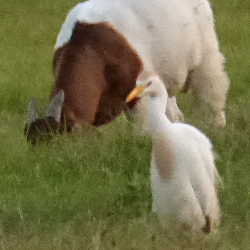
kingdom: Animalia
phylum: Chordata
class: Aves
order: Pelecaniformes
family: Ardeidae
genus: Bubulcus
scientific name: Bubulcus ibis
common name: Cattle egret
